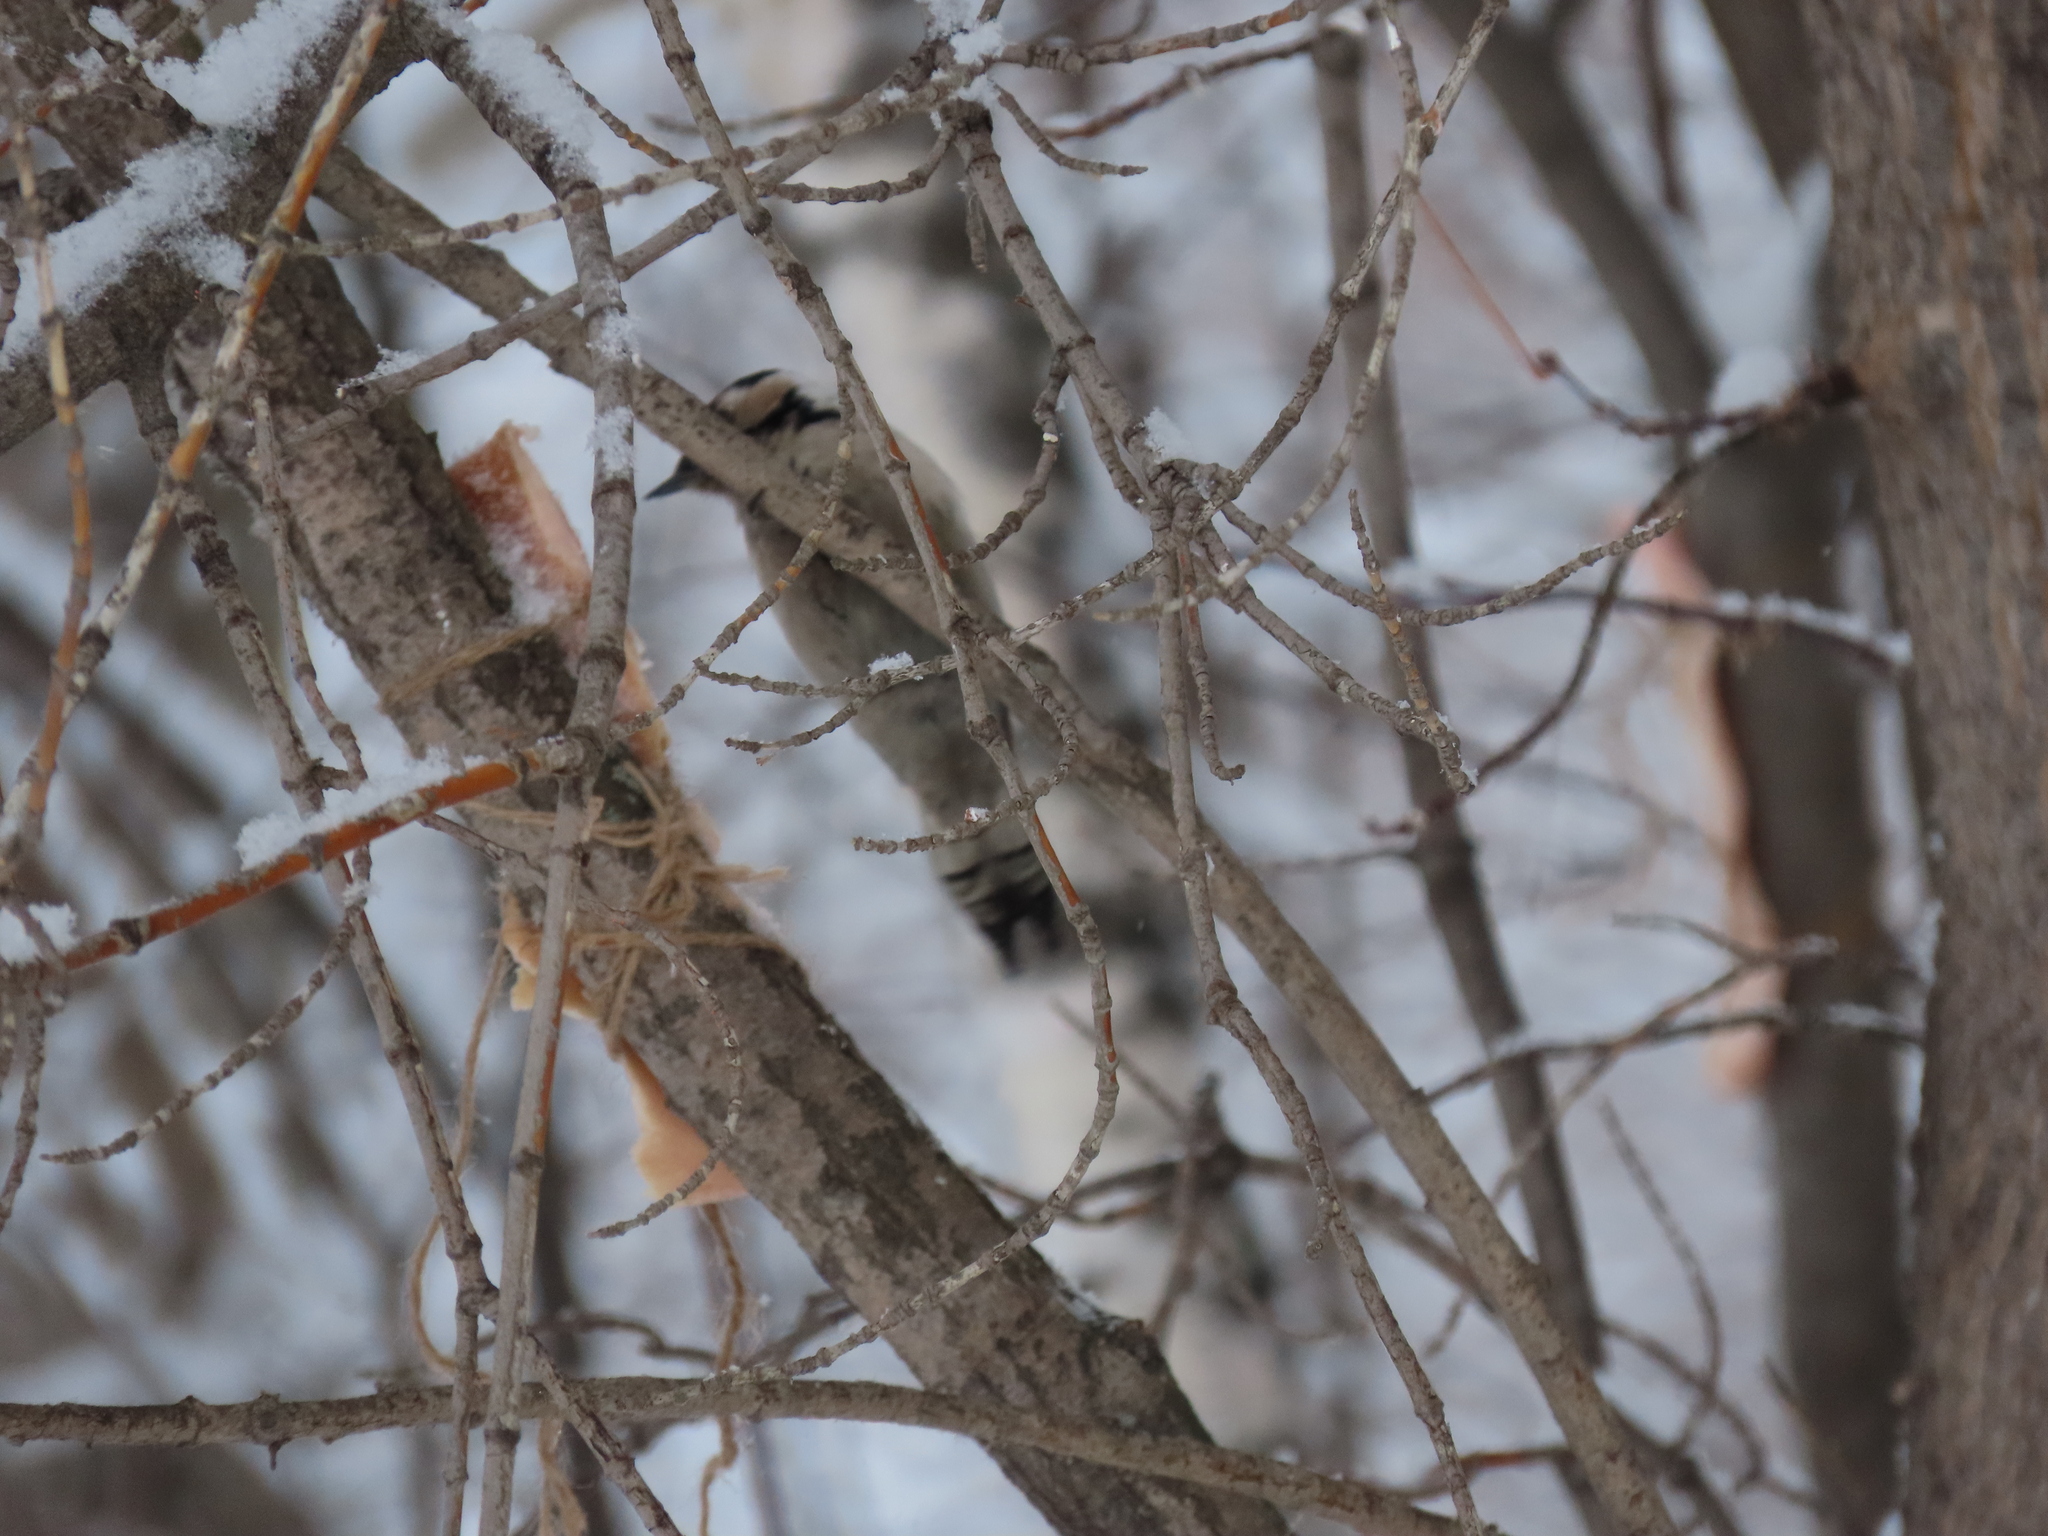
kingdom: Animalia
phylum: Chordata
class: Aves
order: Piciformes
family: Picidae
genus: Dryobates
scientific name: Dryobates minor
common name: Lesser spotted woodpecker
